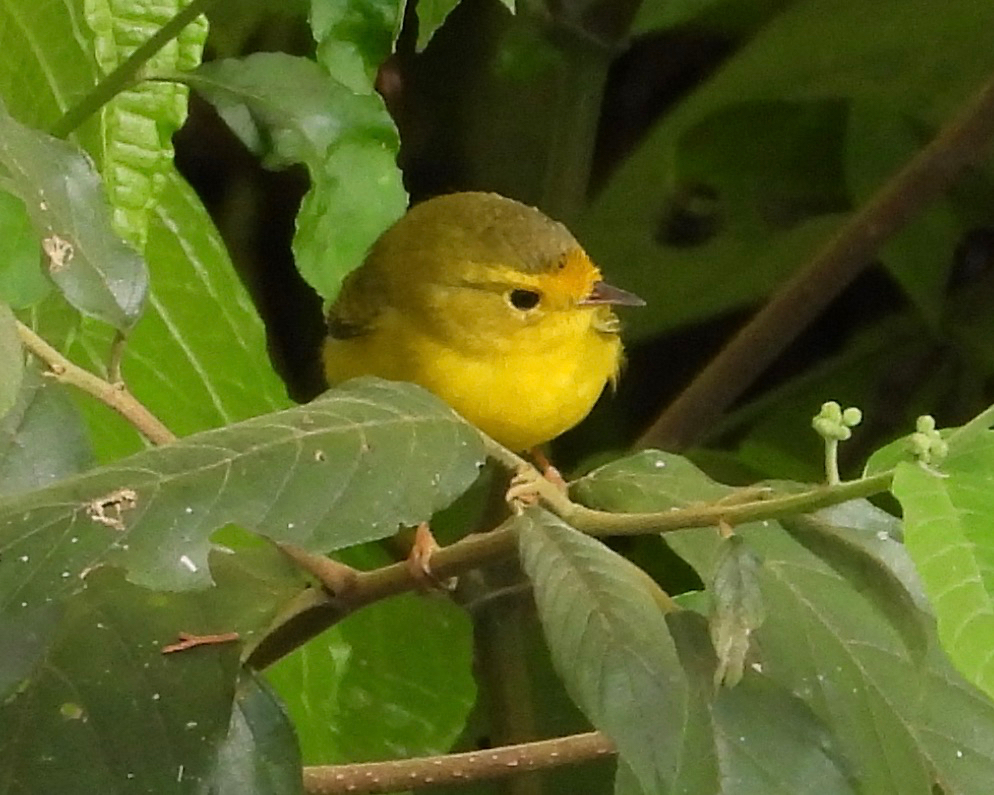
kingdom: Animalia
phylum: Chordata
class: Aves
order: Passeriformes
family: Parulidae
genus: Cardellina
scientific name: Cardellina pusilla
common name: Wilson's warbler
